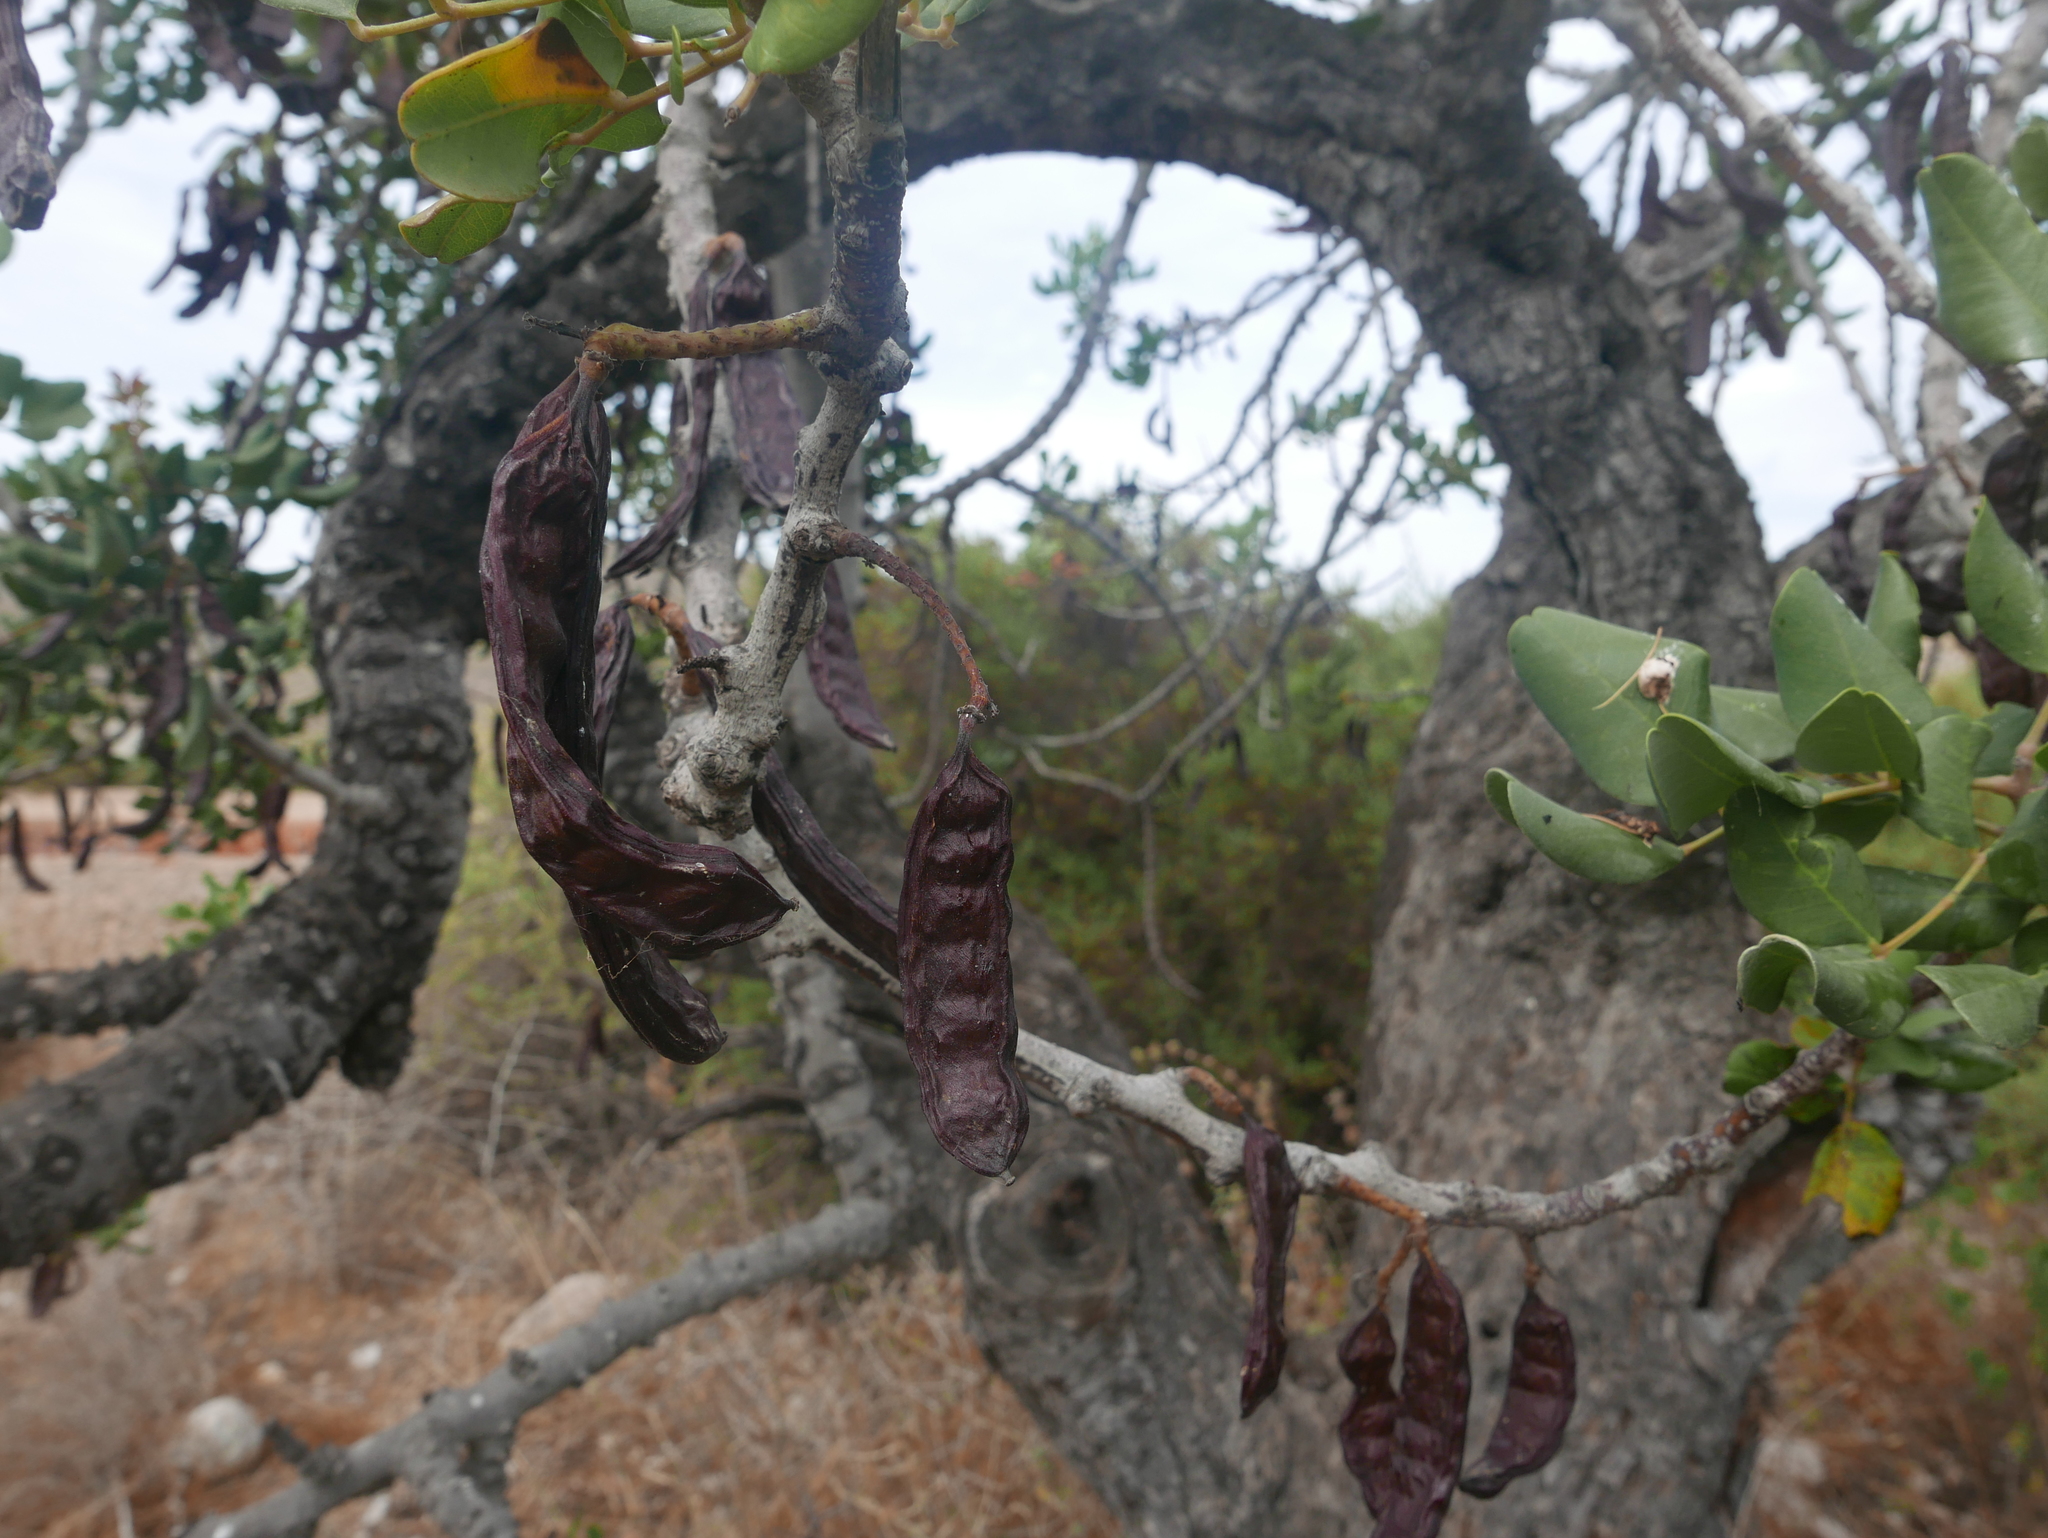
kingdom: Plantae
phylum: Tracheophyta
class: Magnoliopsida
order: Fabales
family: Fabaceae
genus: Ceratonia
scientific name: Ceratonia siliqua
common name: Carob
